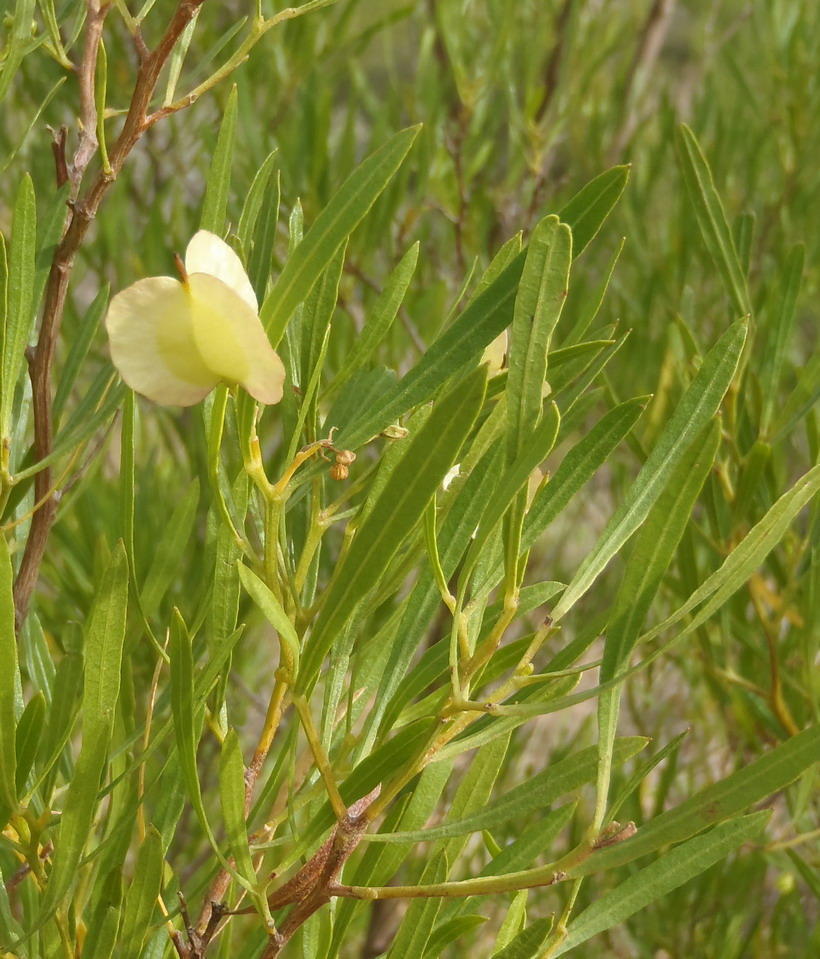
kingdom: Plantae
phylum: Tracheophyta
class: Magnoliopsida
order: Sapindales
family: Sapindaceae
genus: Dodonaea
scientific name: Dodonaea viscosa
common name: Hopbush
